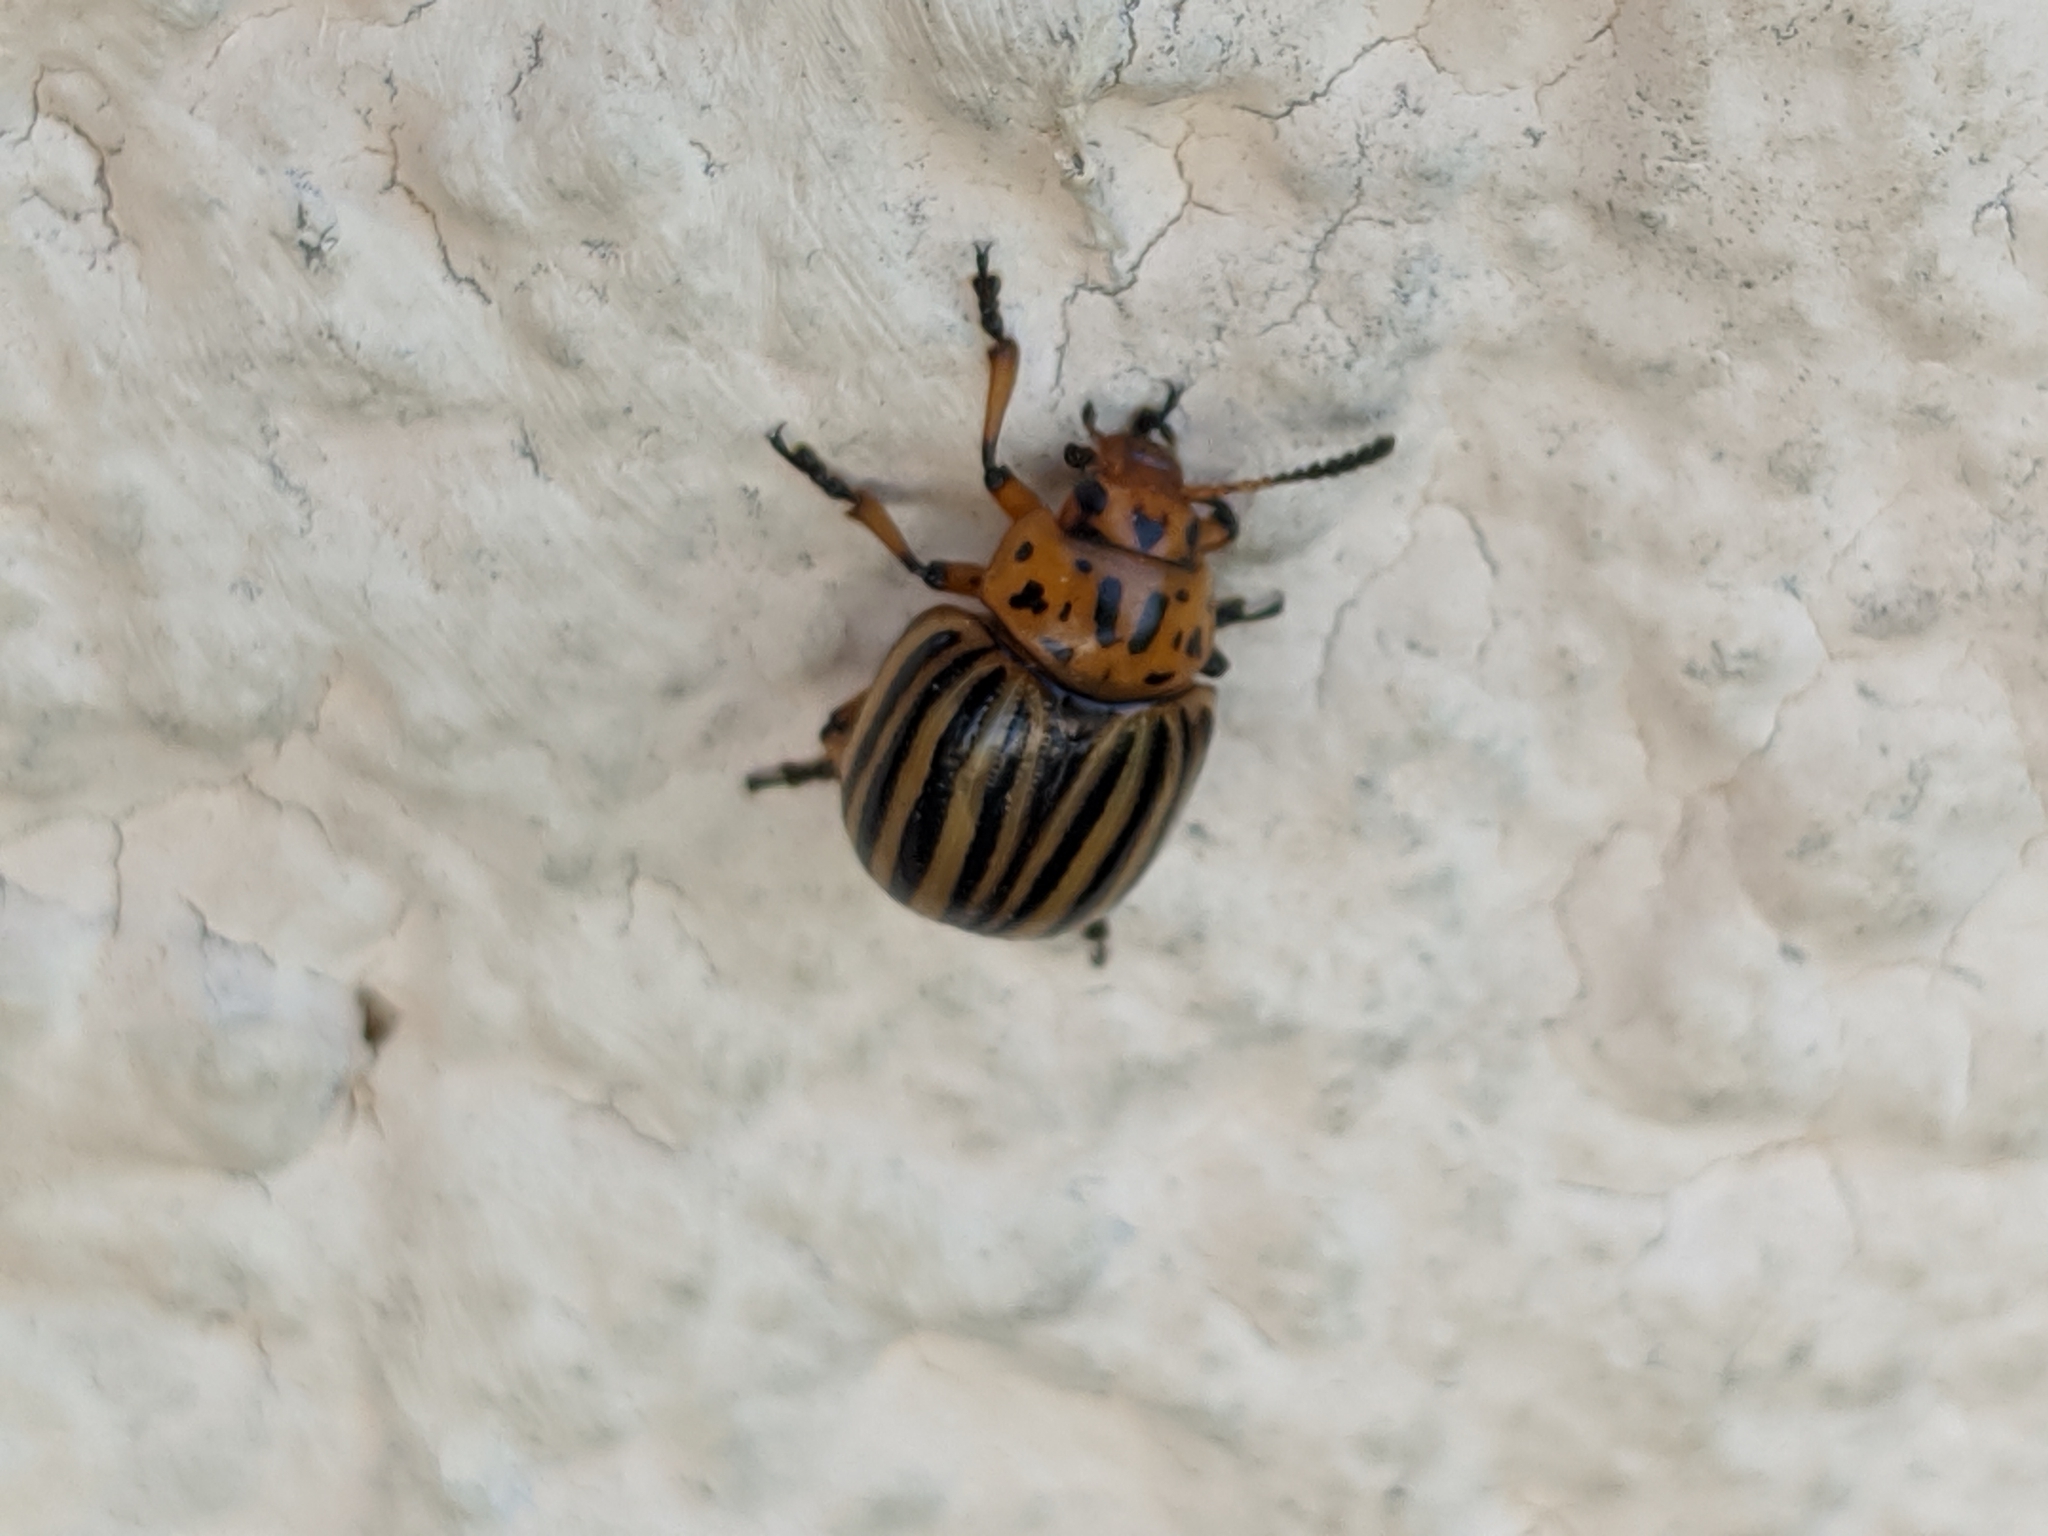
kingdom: Animalia
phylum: Arthropoda
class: Insecta
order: Coleoptera
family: Chrysomelidae
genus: Leptinotarsa
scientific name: Leptinotarsa decemlineata
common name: Colorado potato beetle
